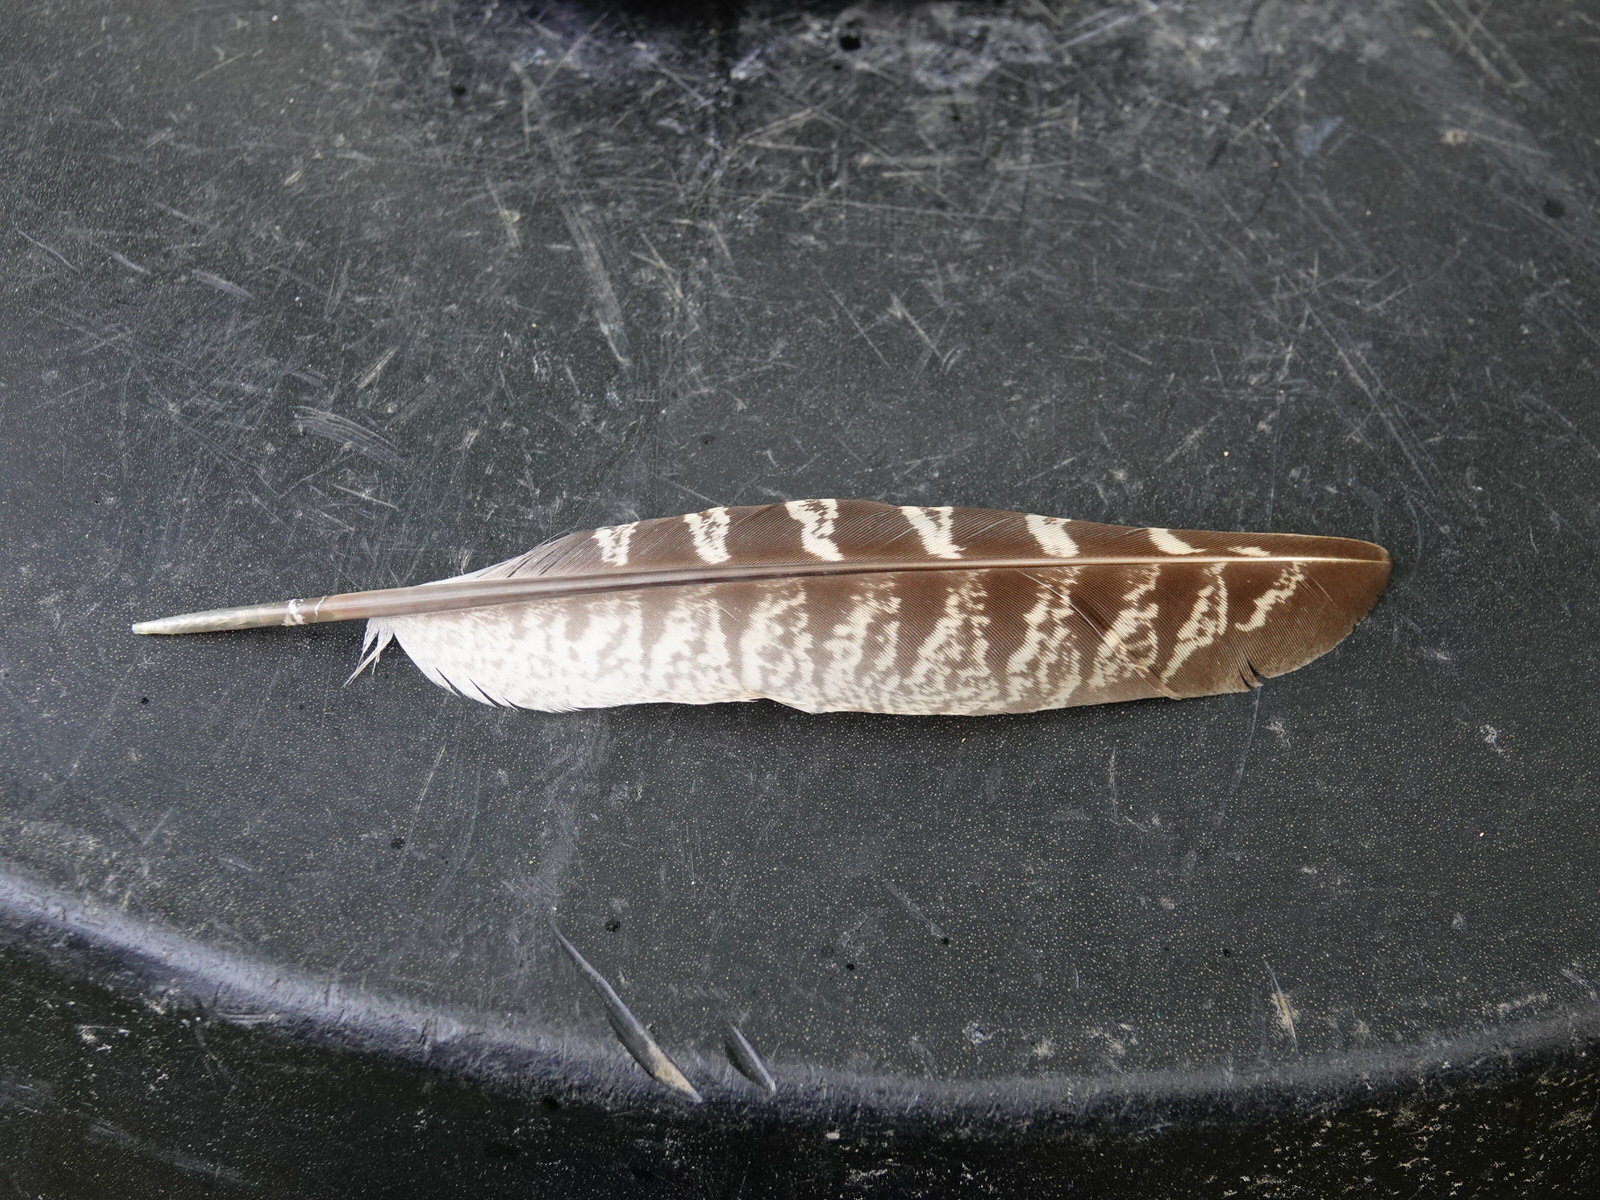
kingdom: Animalia
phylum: Chordata
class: Aves
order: Galliformes
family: Phasianidae
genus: Phasianus
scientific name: Phasianus colchicus
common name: Common pheasant
